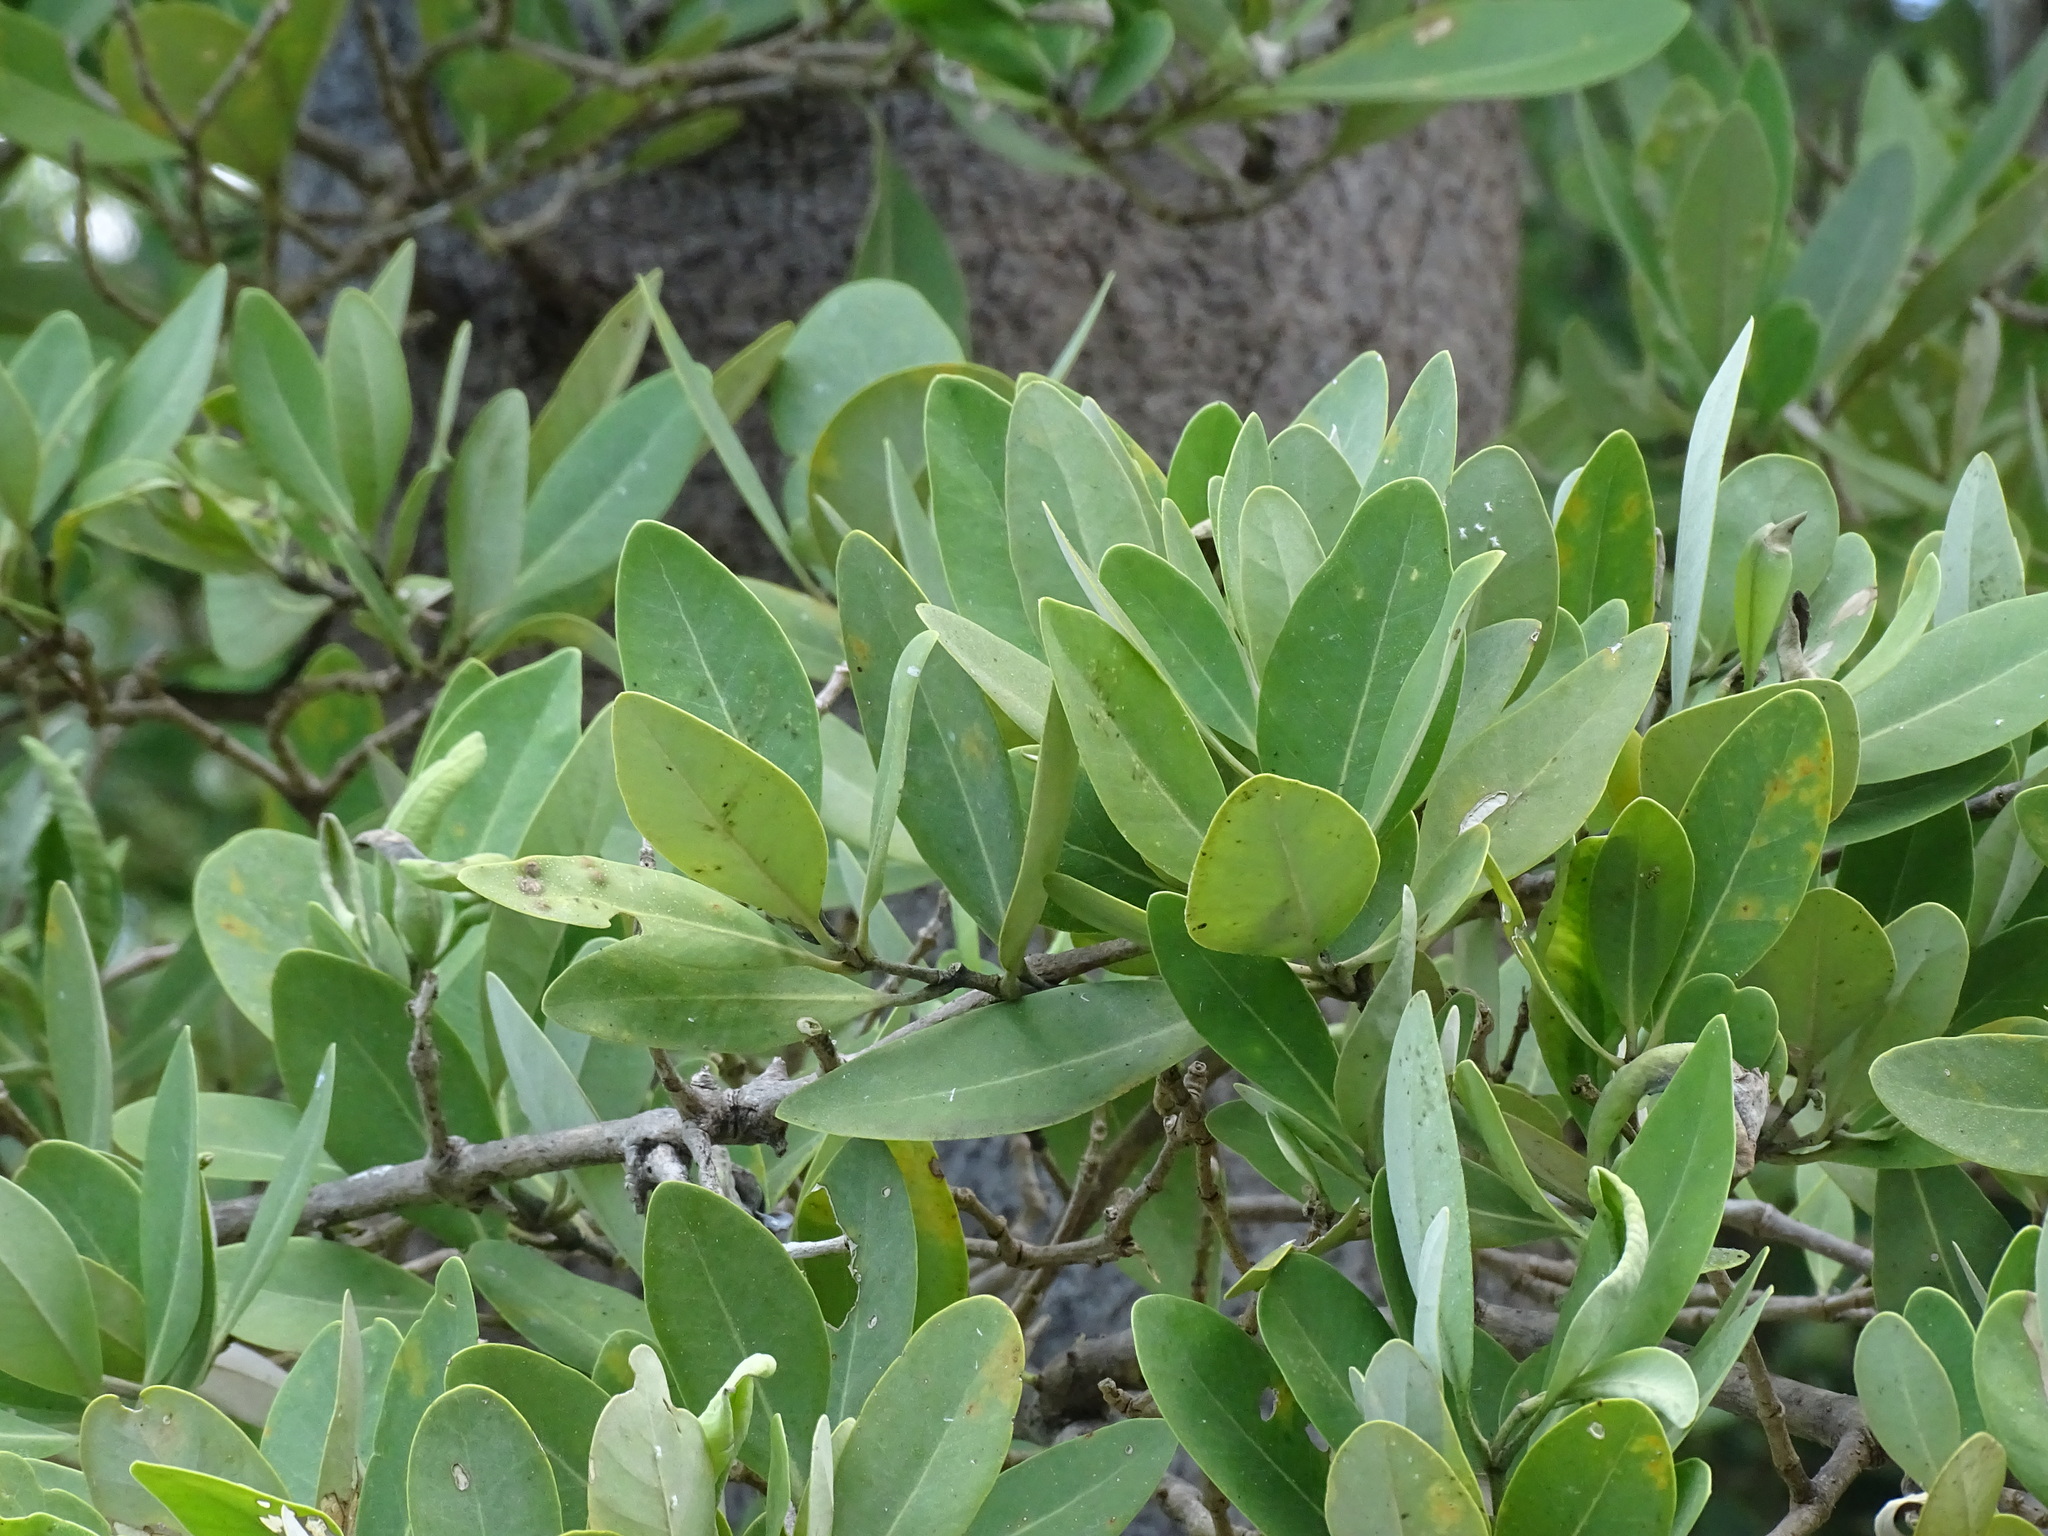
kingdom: Plantae
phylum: Tracheophyta
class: Magnoliopsida
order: Lamiales
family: Acanthaceae
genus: Avicennia
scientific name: Avicennia germinans
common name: Black mangrove
